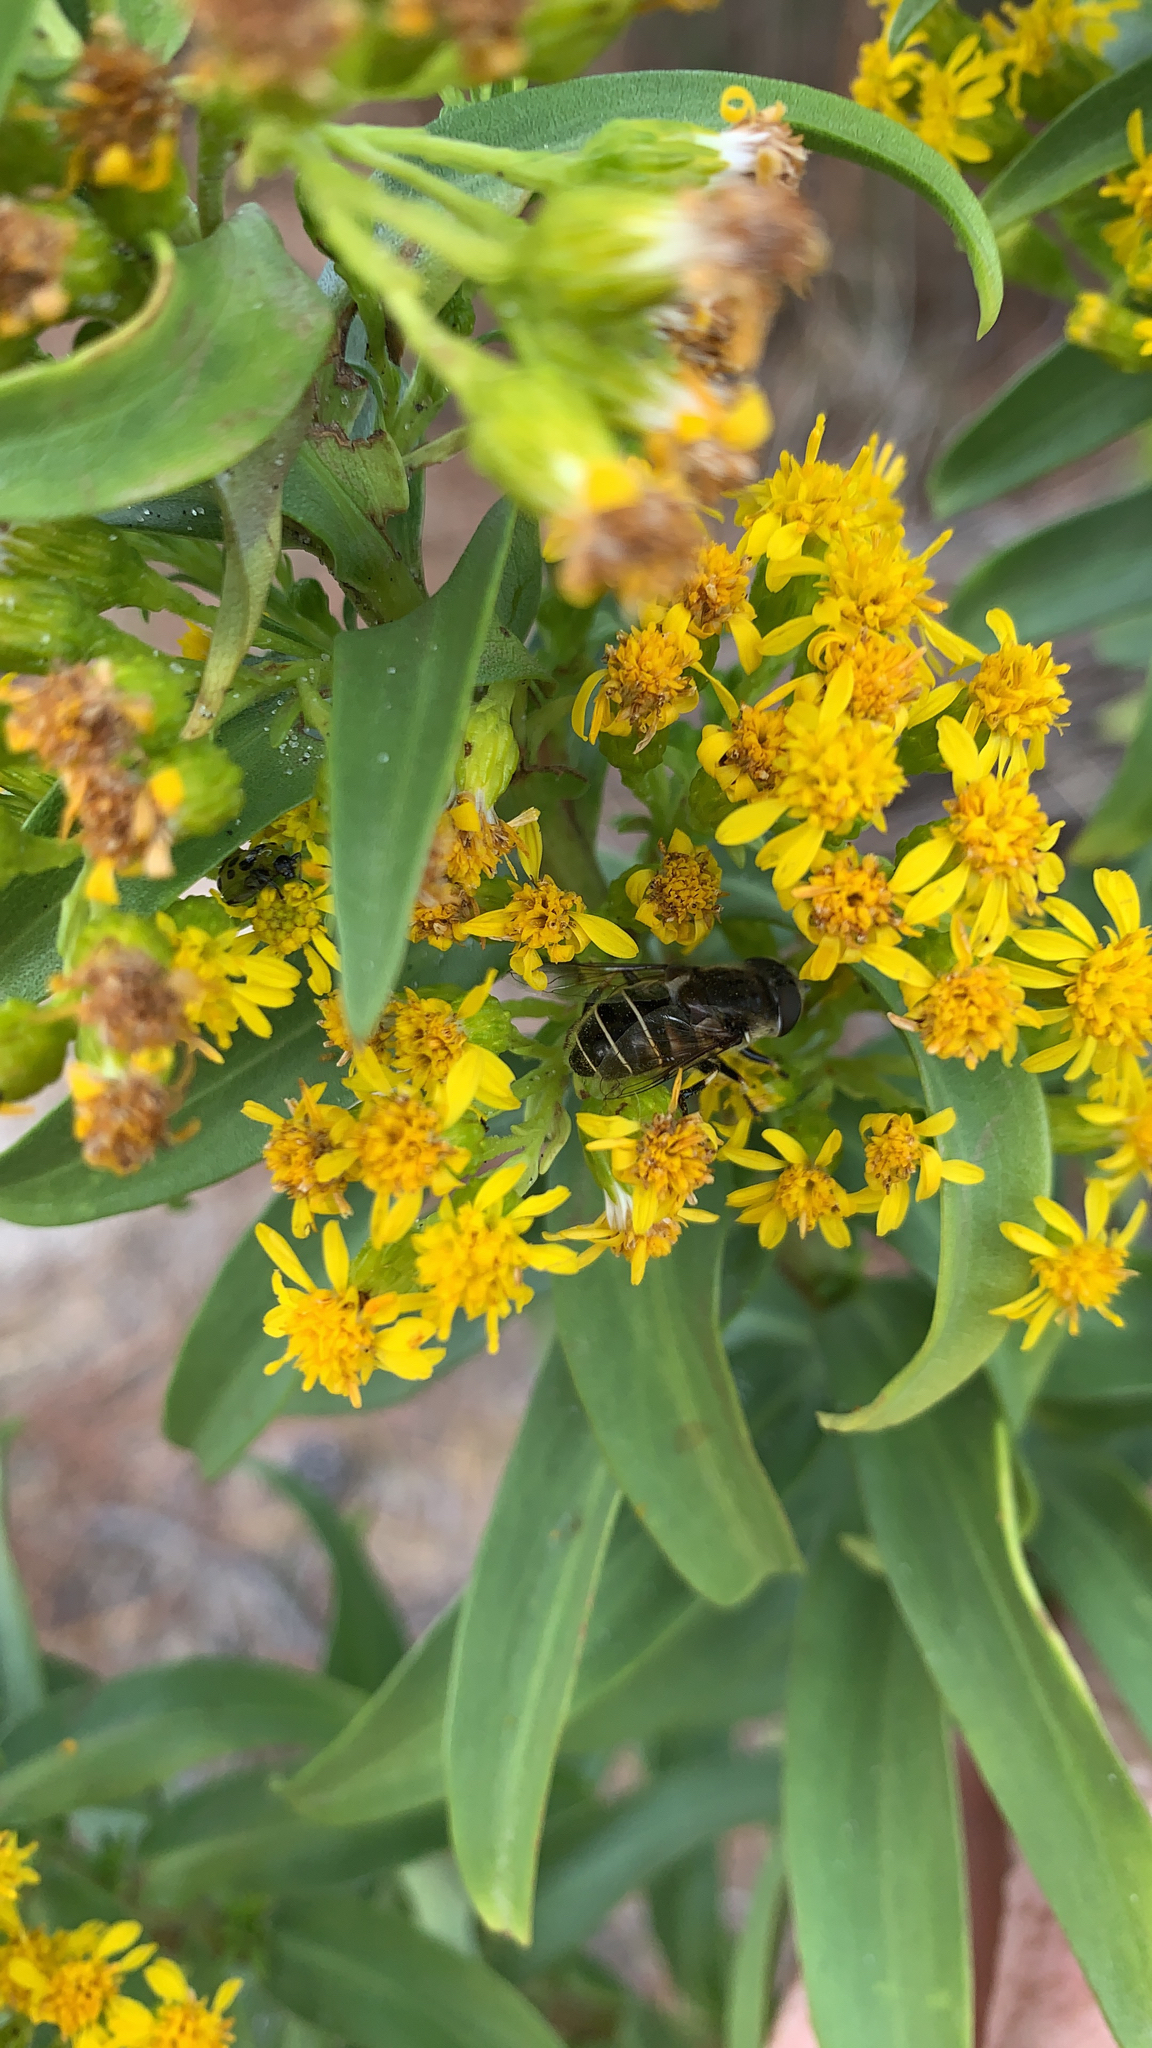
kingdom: Animalia
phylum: Arthropoda
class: Insecta
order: Diptera
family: Syrphidae
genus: Eristalis
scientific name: Eristalis dimidiata
